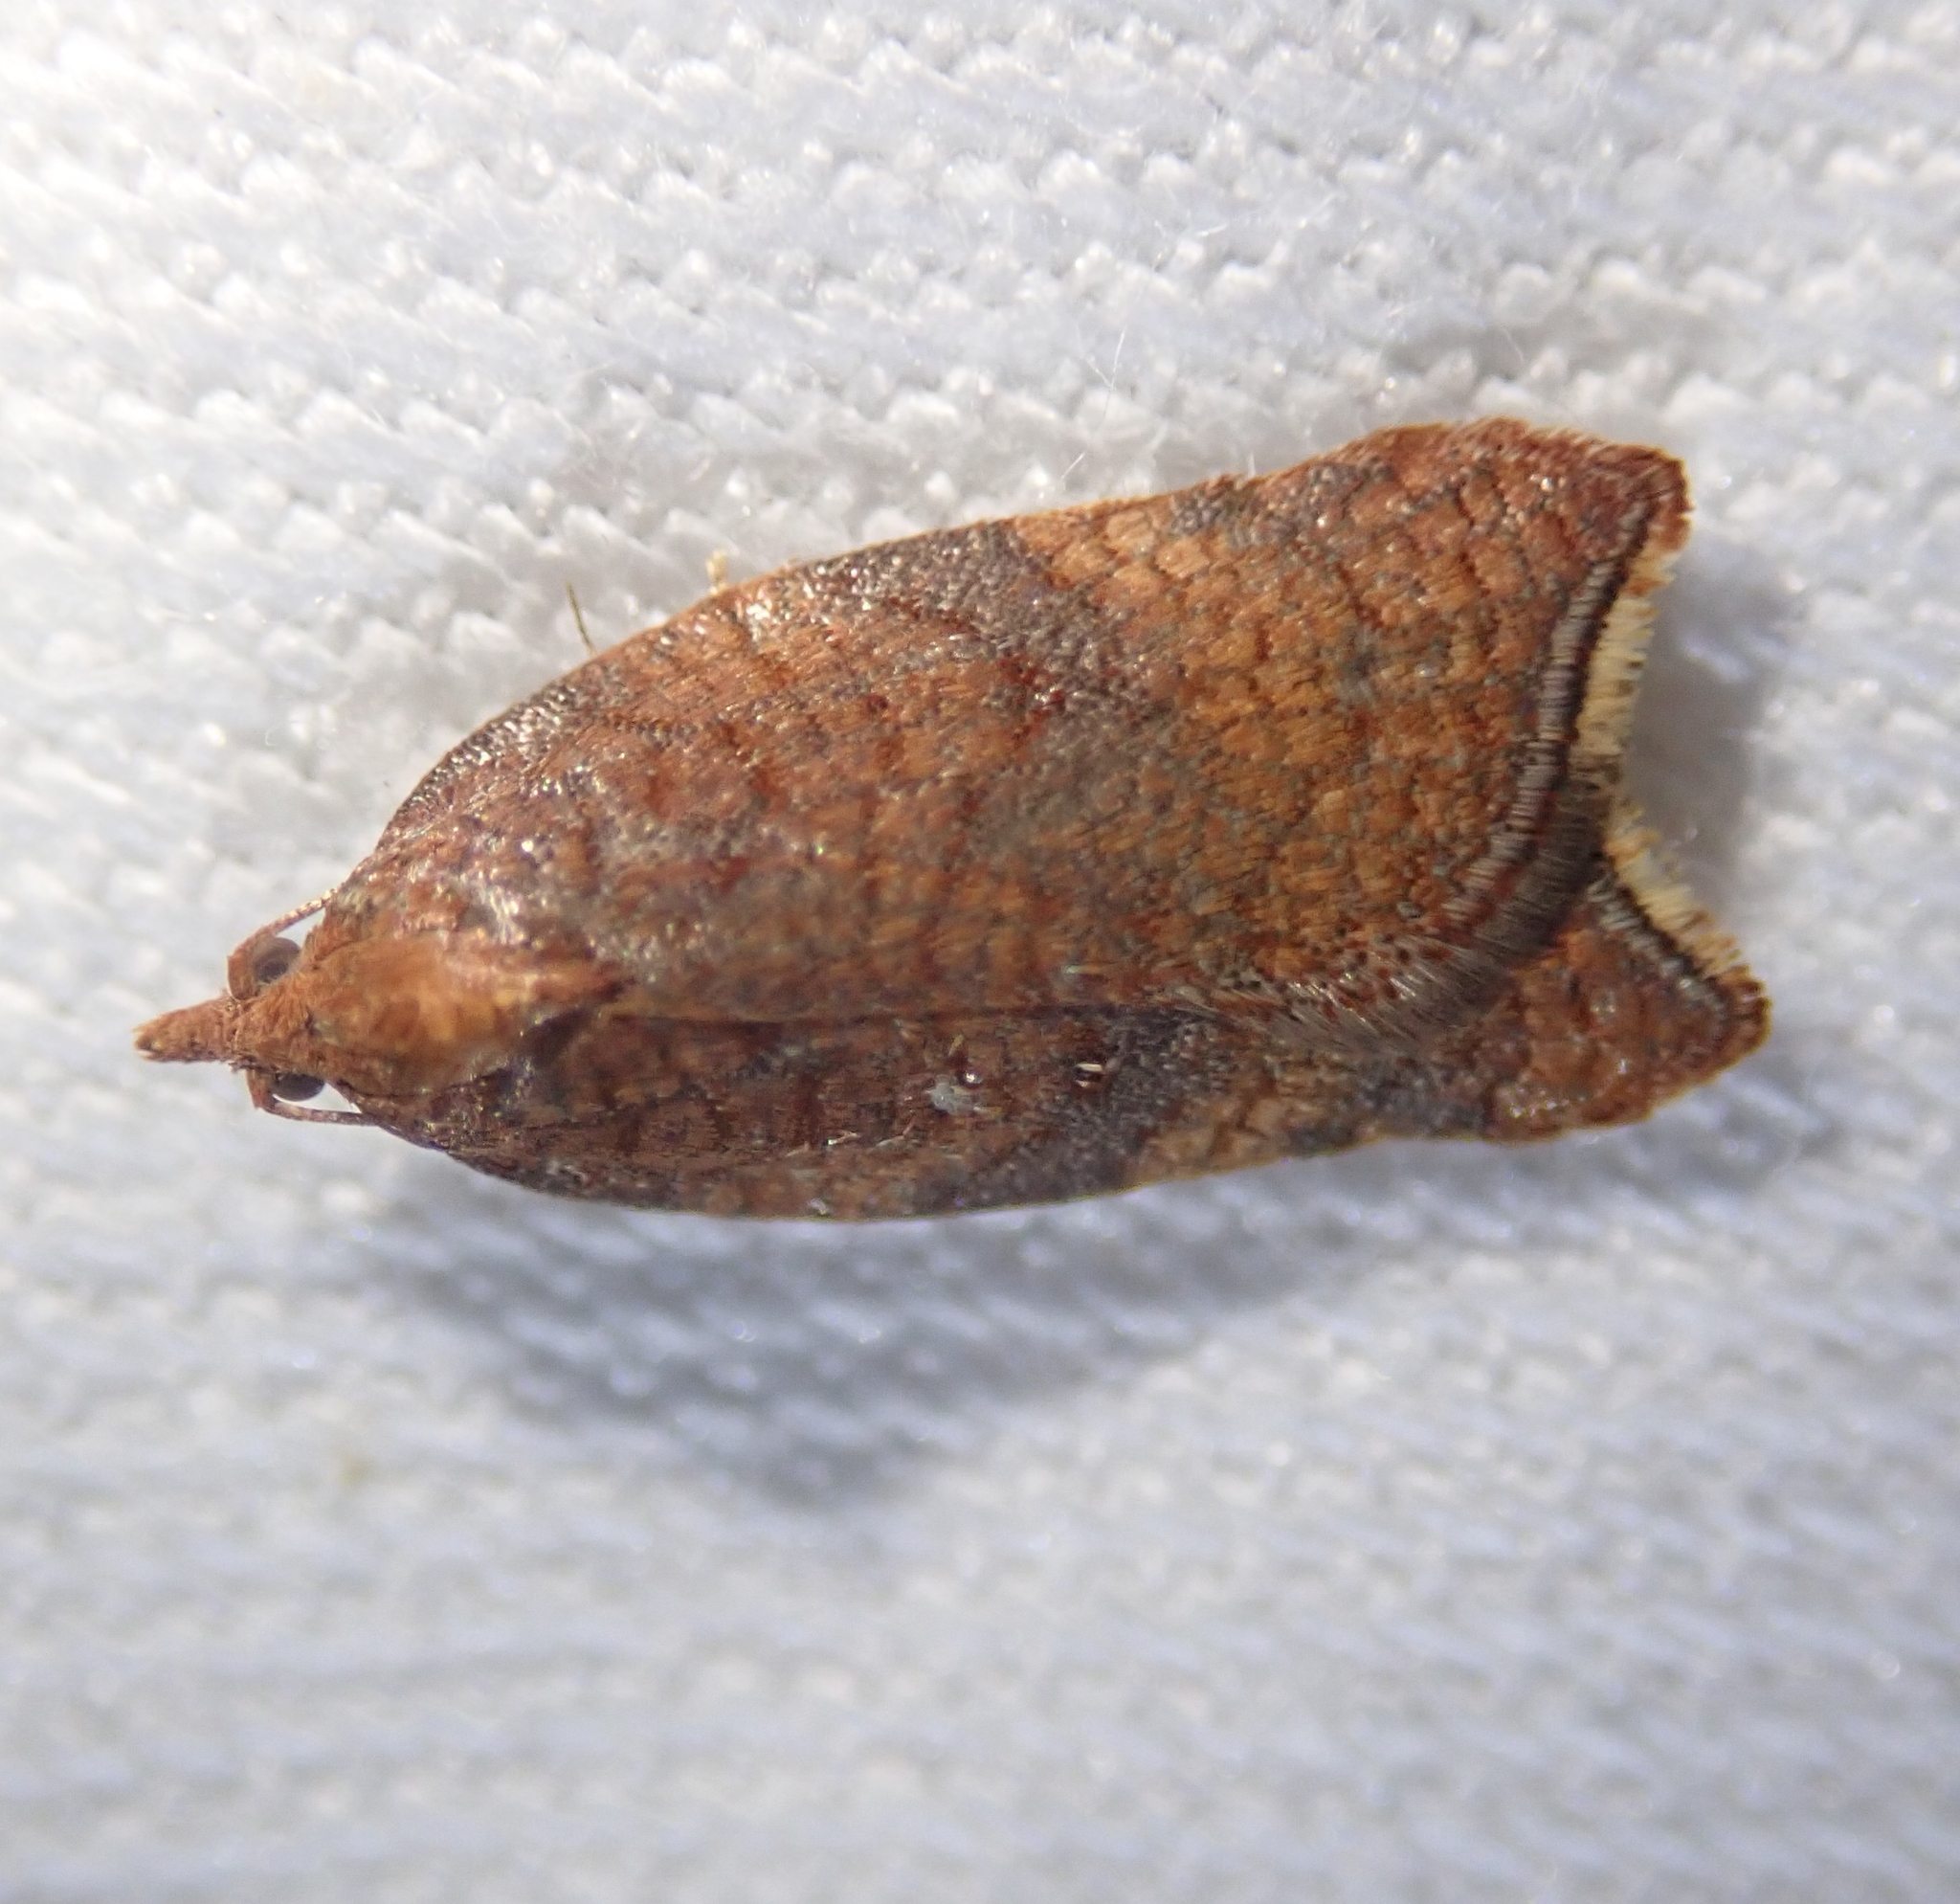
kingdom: Animalia
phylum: Arthropoda
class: Insecta
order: Lepidoptera
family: Tortricidae
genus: Acleris
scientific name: Acleris rhombana
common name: Tortricid moth
